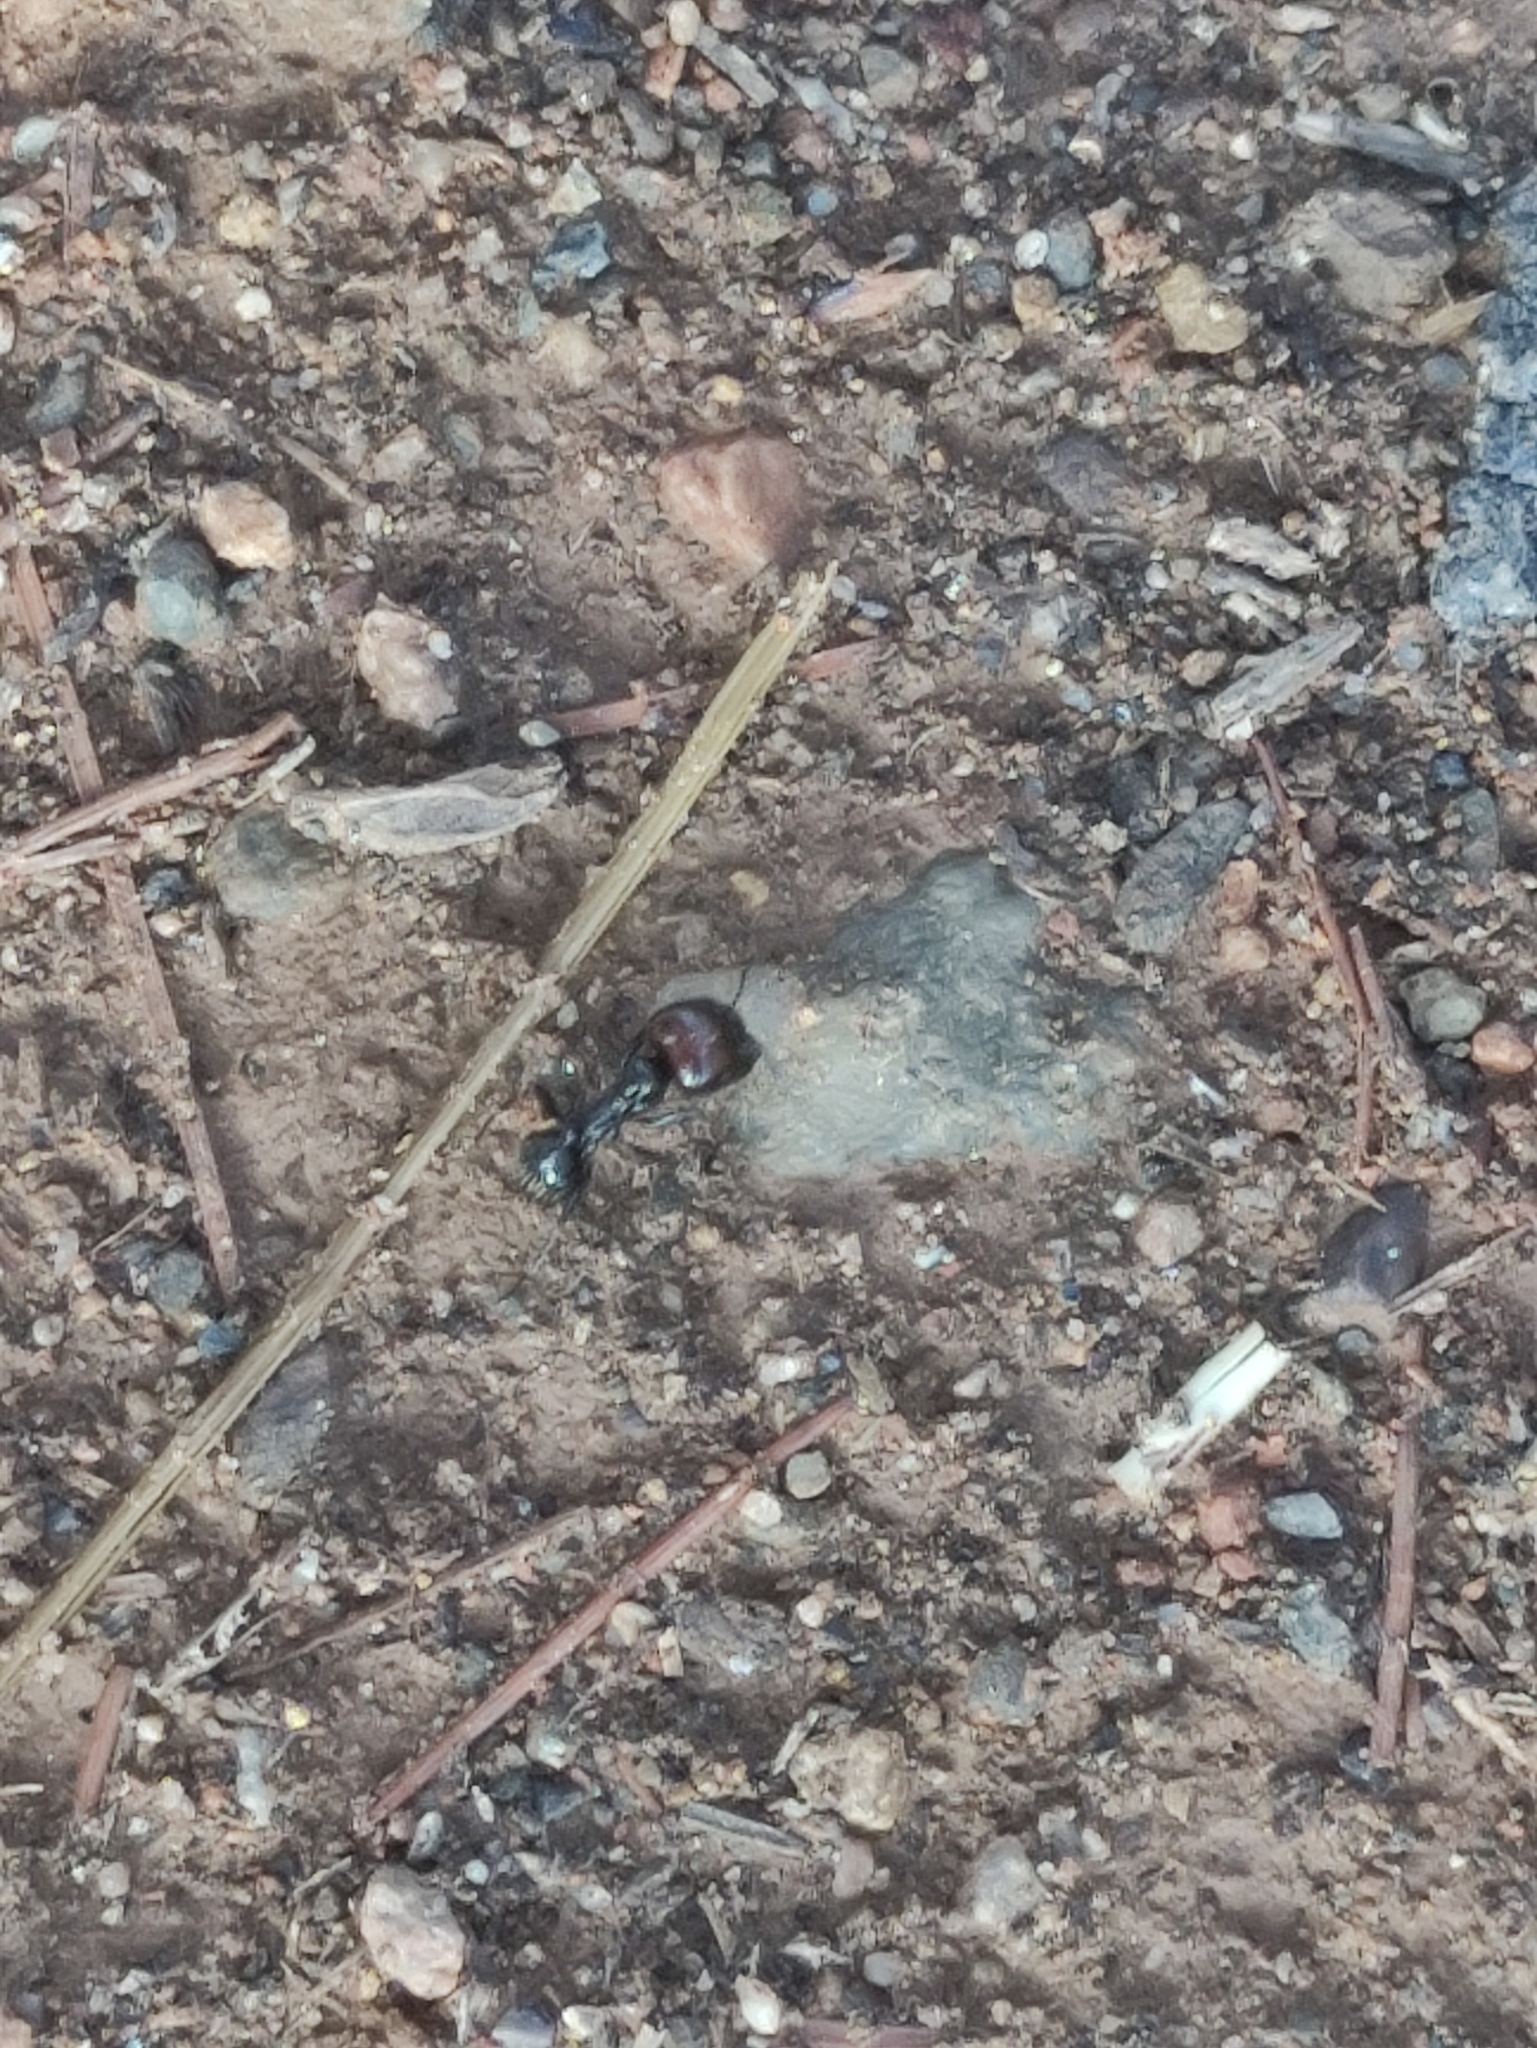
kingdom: Animalia
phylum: Arthropoda
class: Insecta
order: Hymenoptera
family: Formicidae
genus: Messor
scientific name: Messor barbarus
